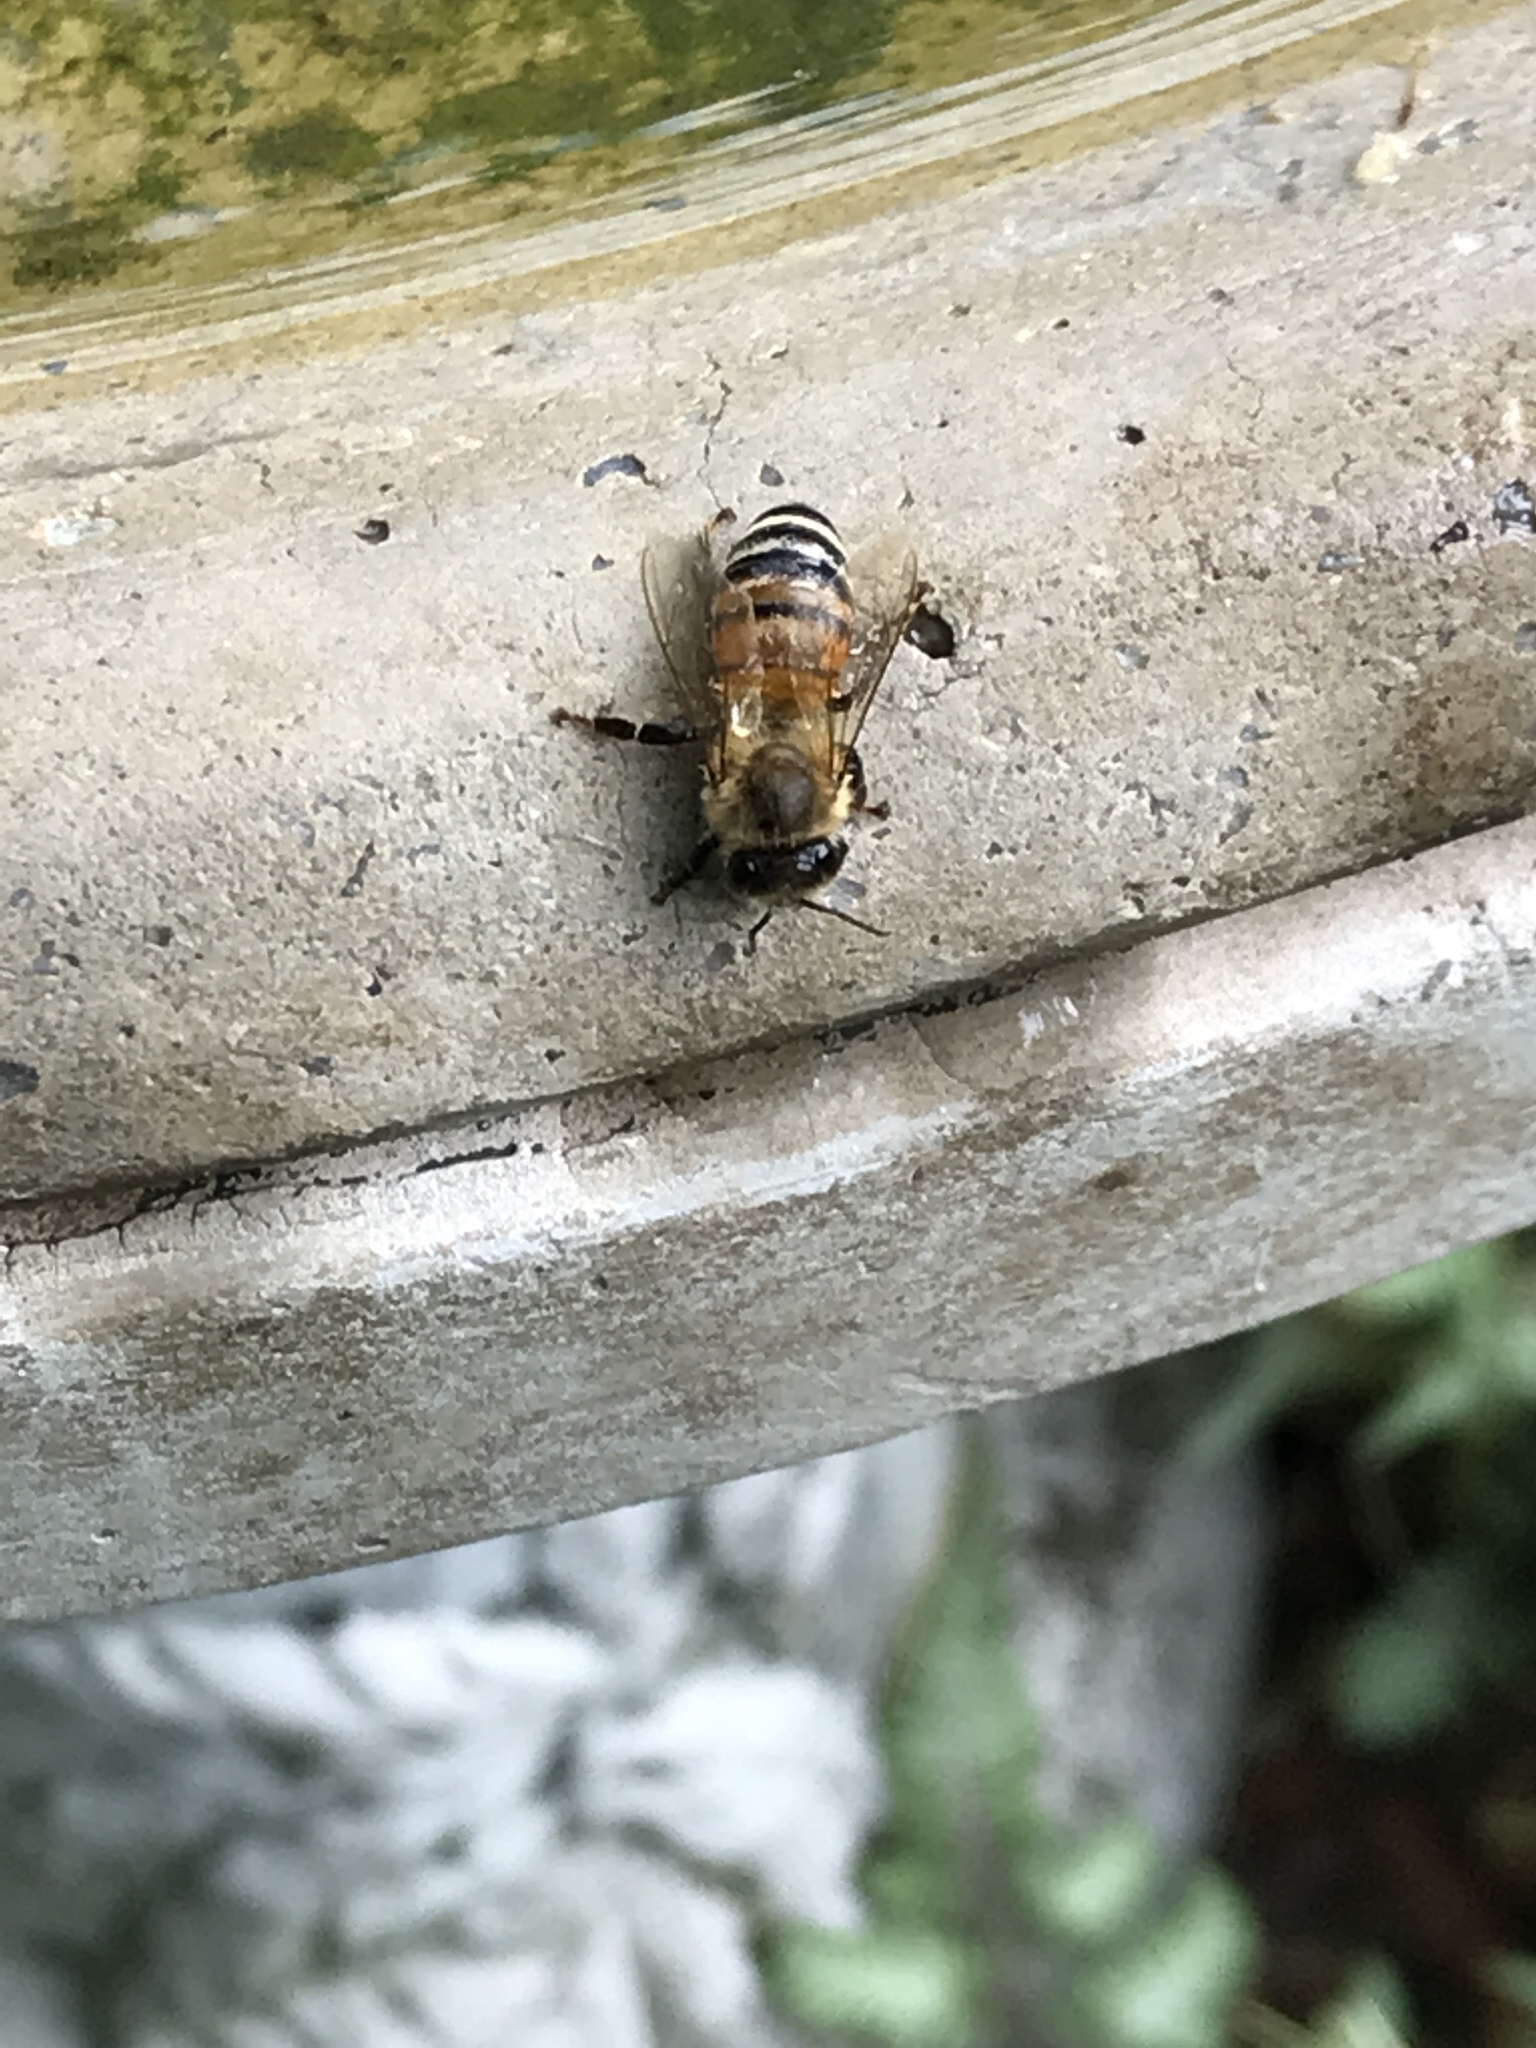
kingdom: Animalia
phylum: Arthropoda
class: Insecta
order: Hymenoptera
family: Apidae
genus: Apis
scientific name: Apis mellifera
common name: Honey bee
